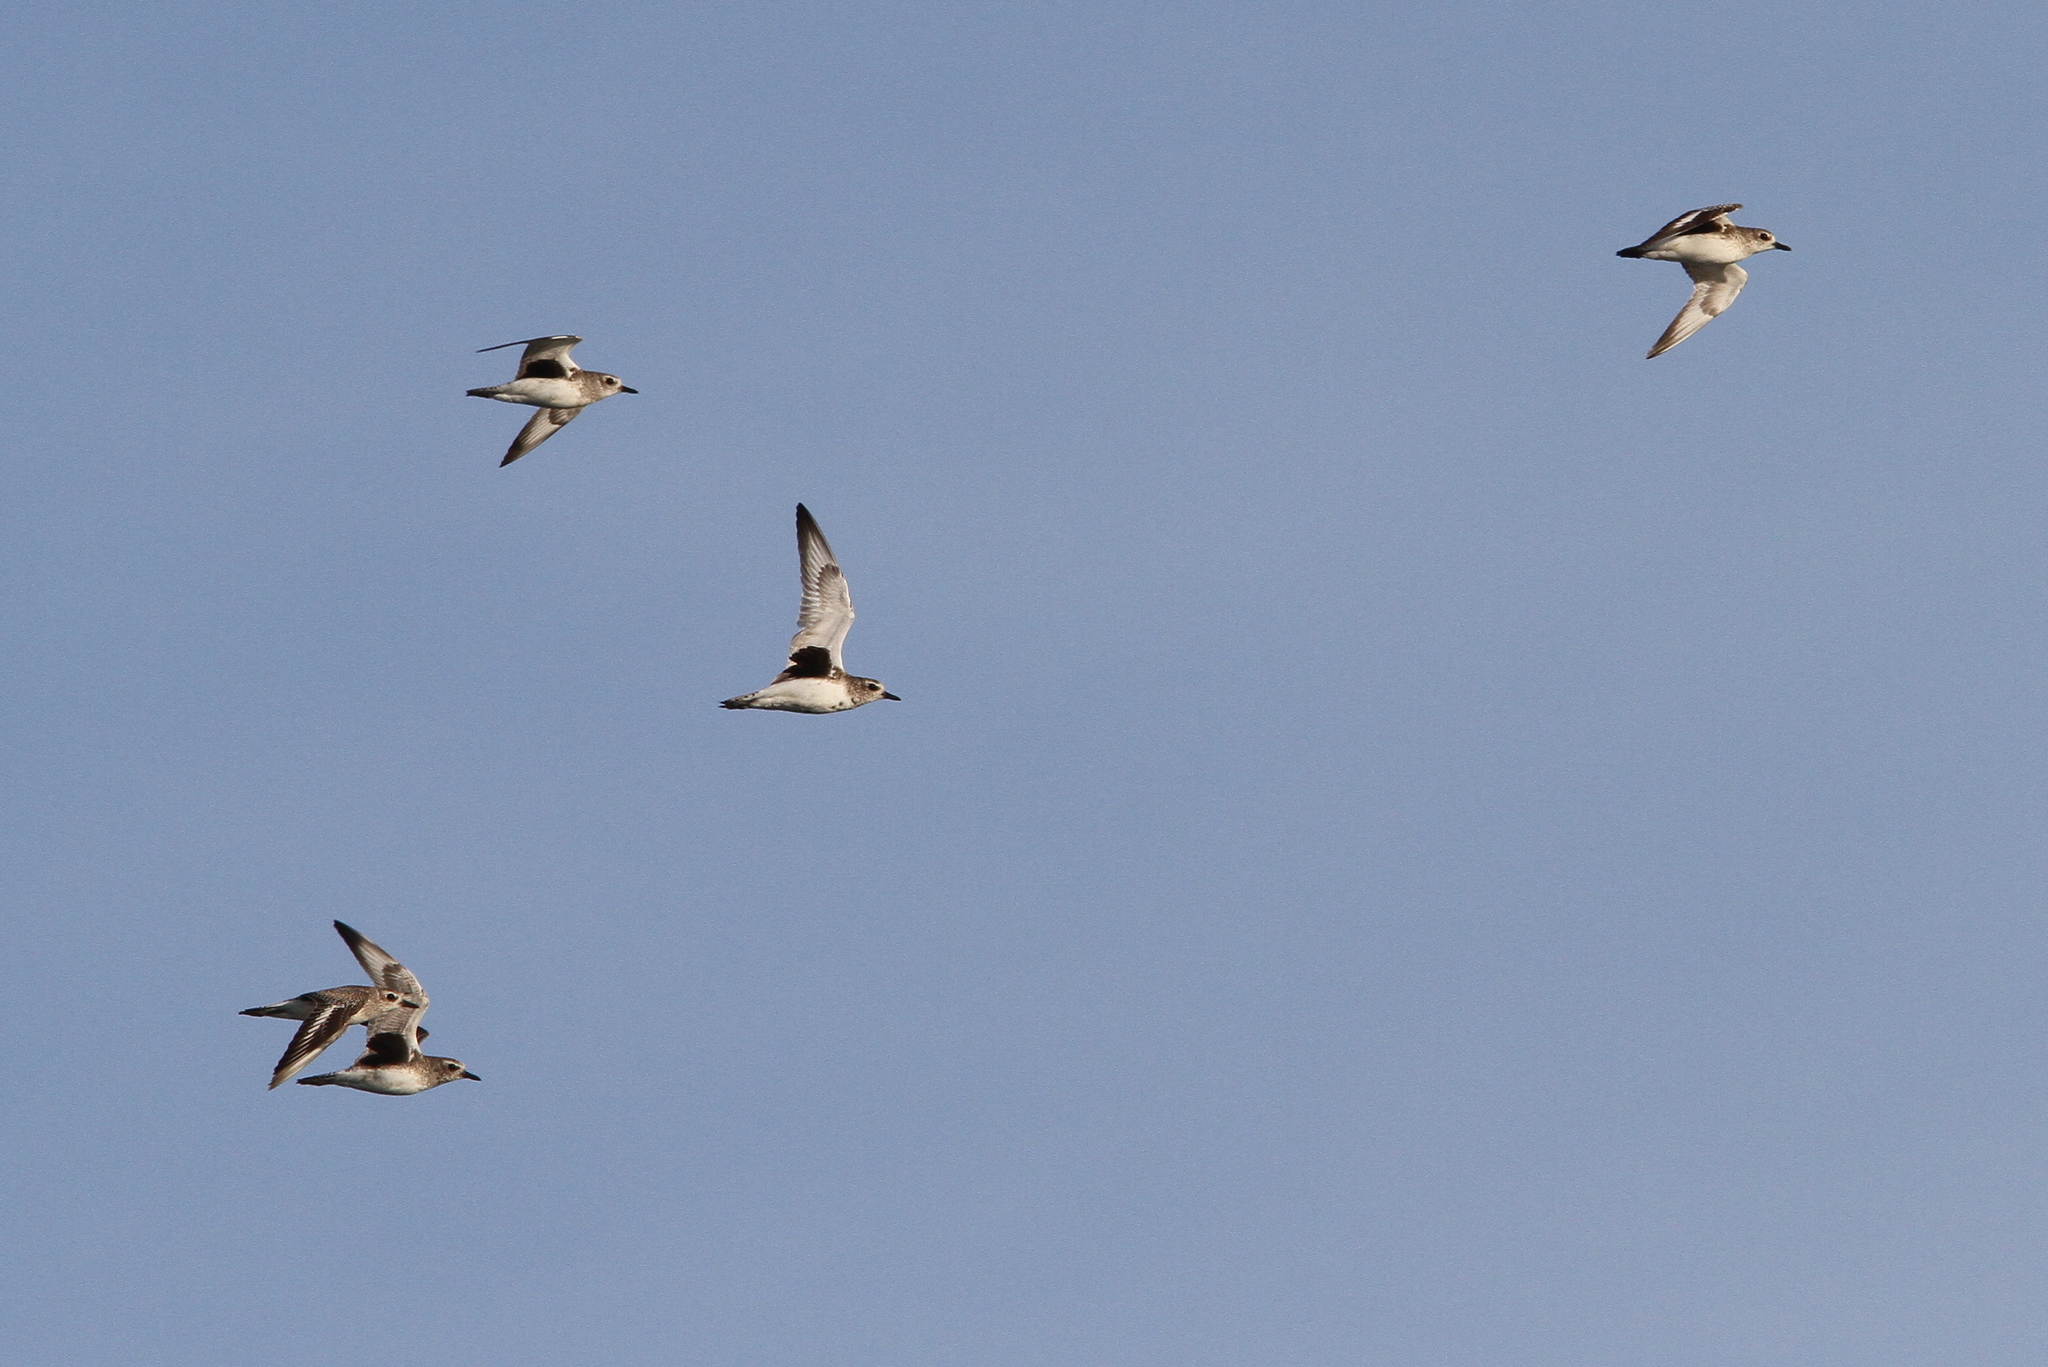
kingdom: Animalia
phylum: Chordata
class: Aves
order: Charadriiformes
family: Charadriidae
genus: Pluvialis
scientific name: Pluvialis squatarola
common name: Grey plover
